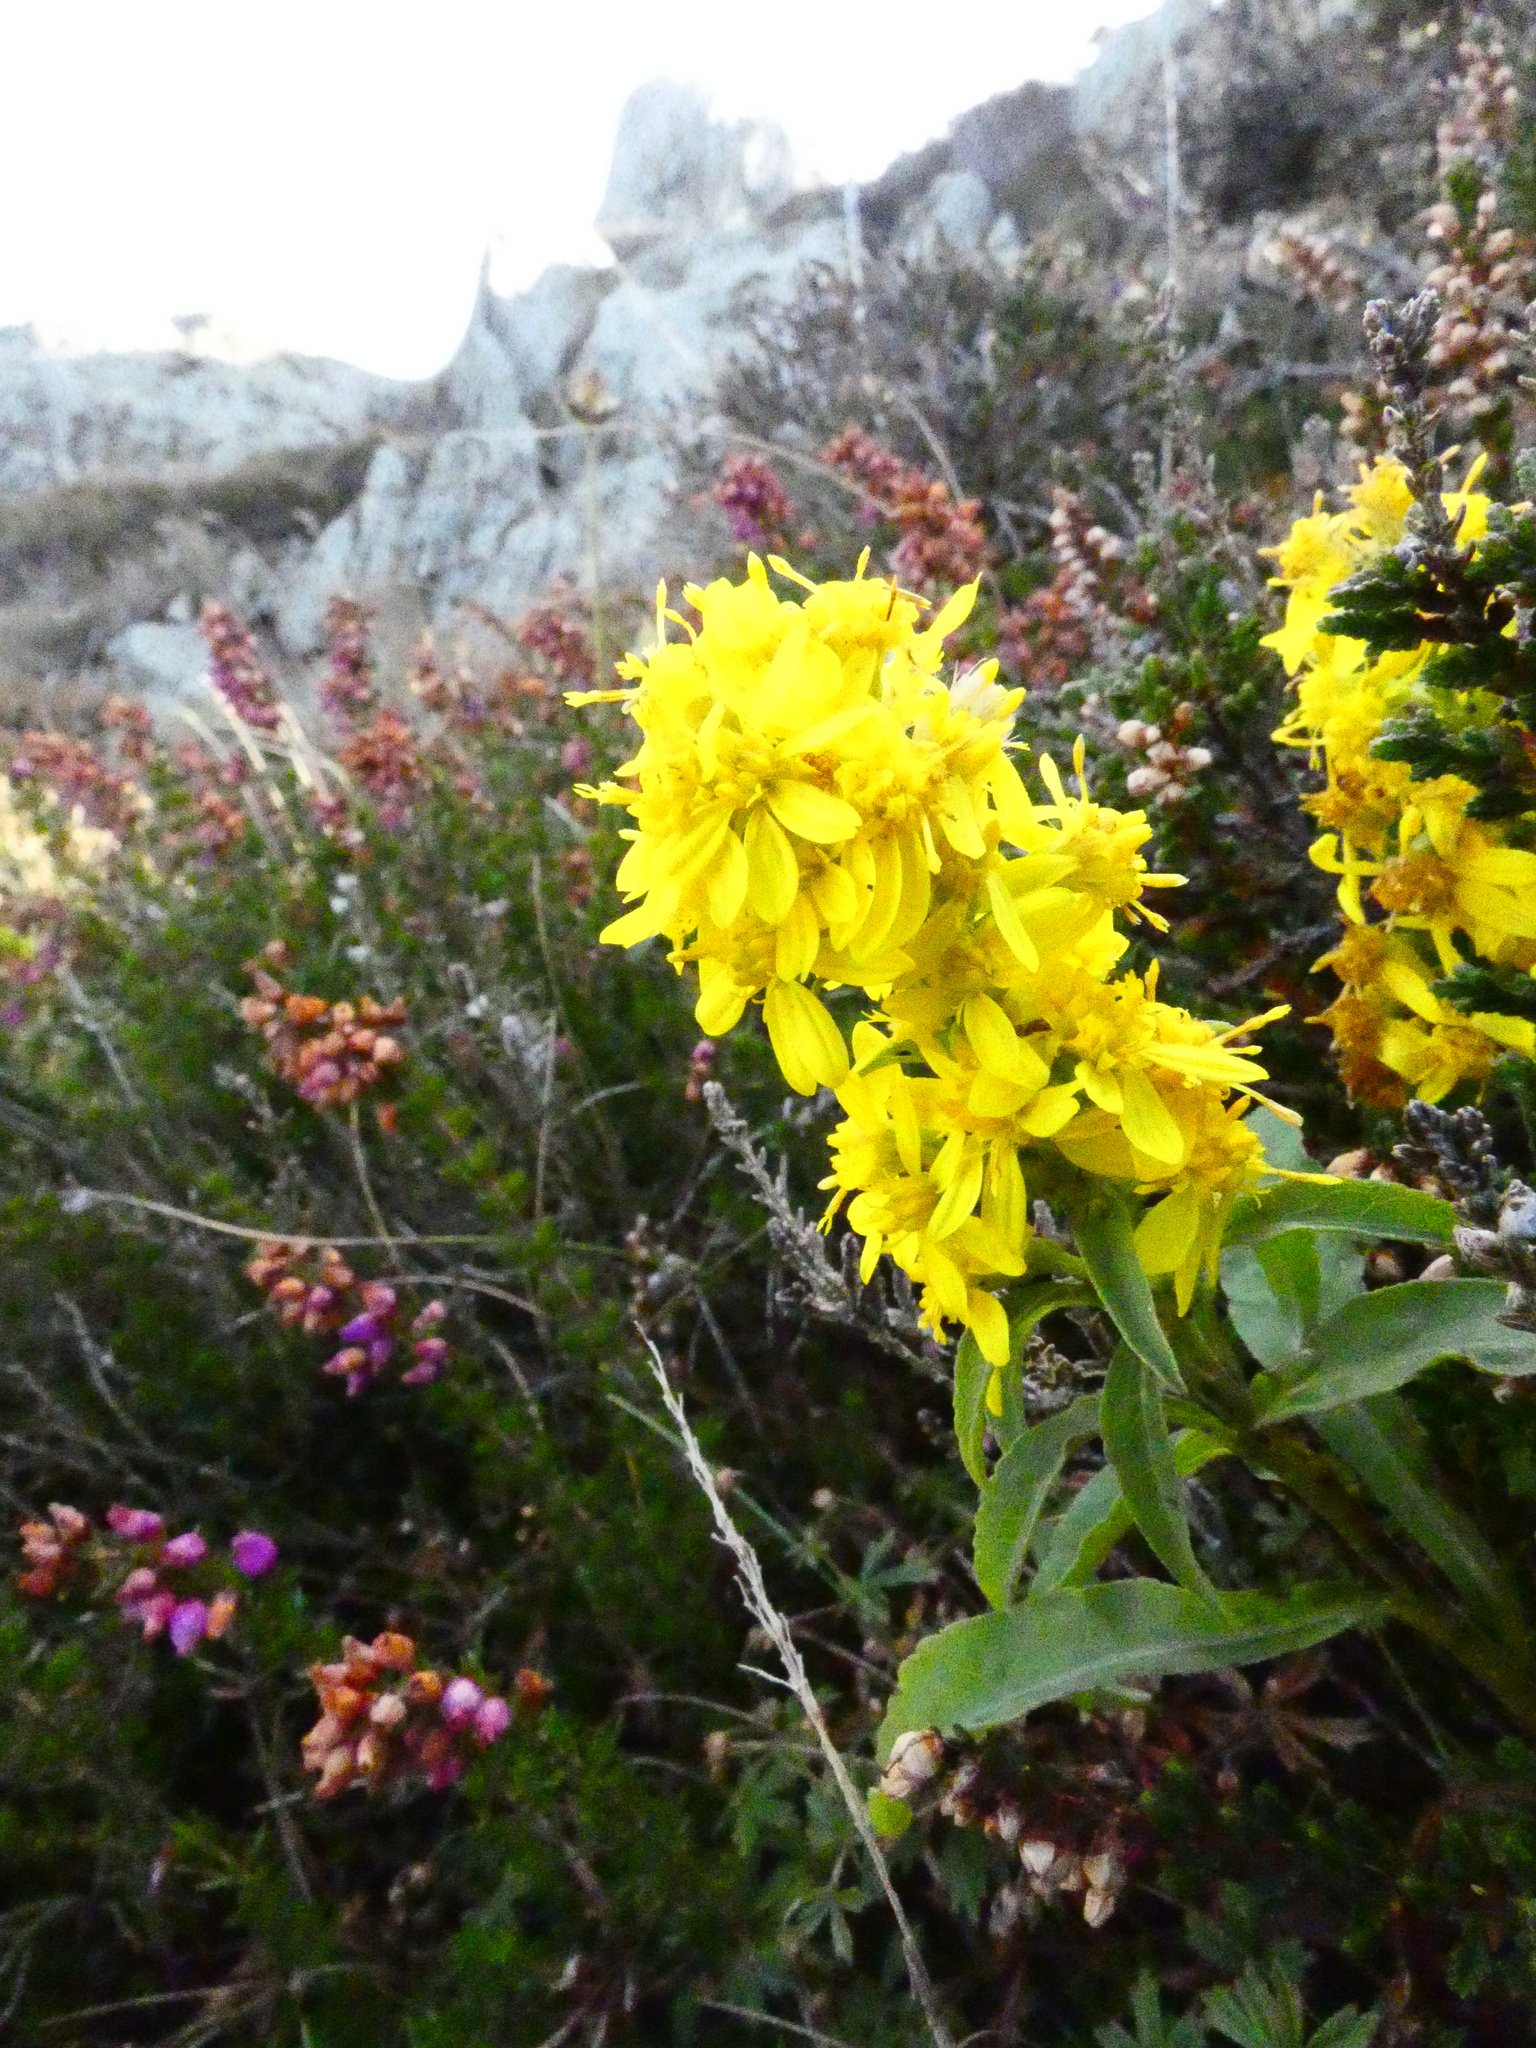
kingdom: Plantae
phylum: Tracheophyta
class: Magnoliopsida
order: Asterales
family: Asteraceae
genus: Solidago
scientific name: Solidago virgaurea
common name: Goldenrod
